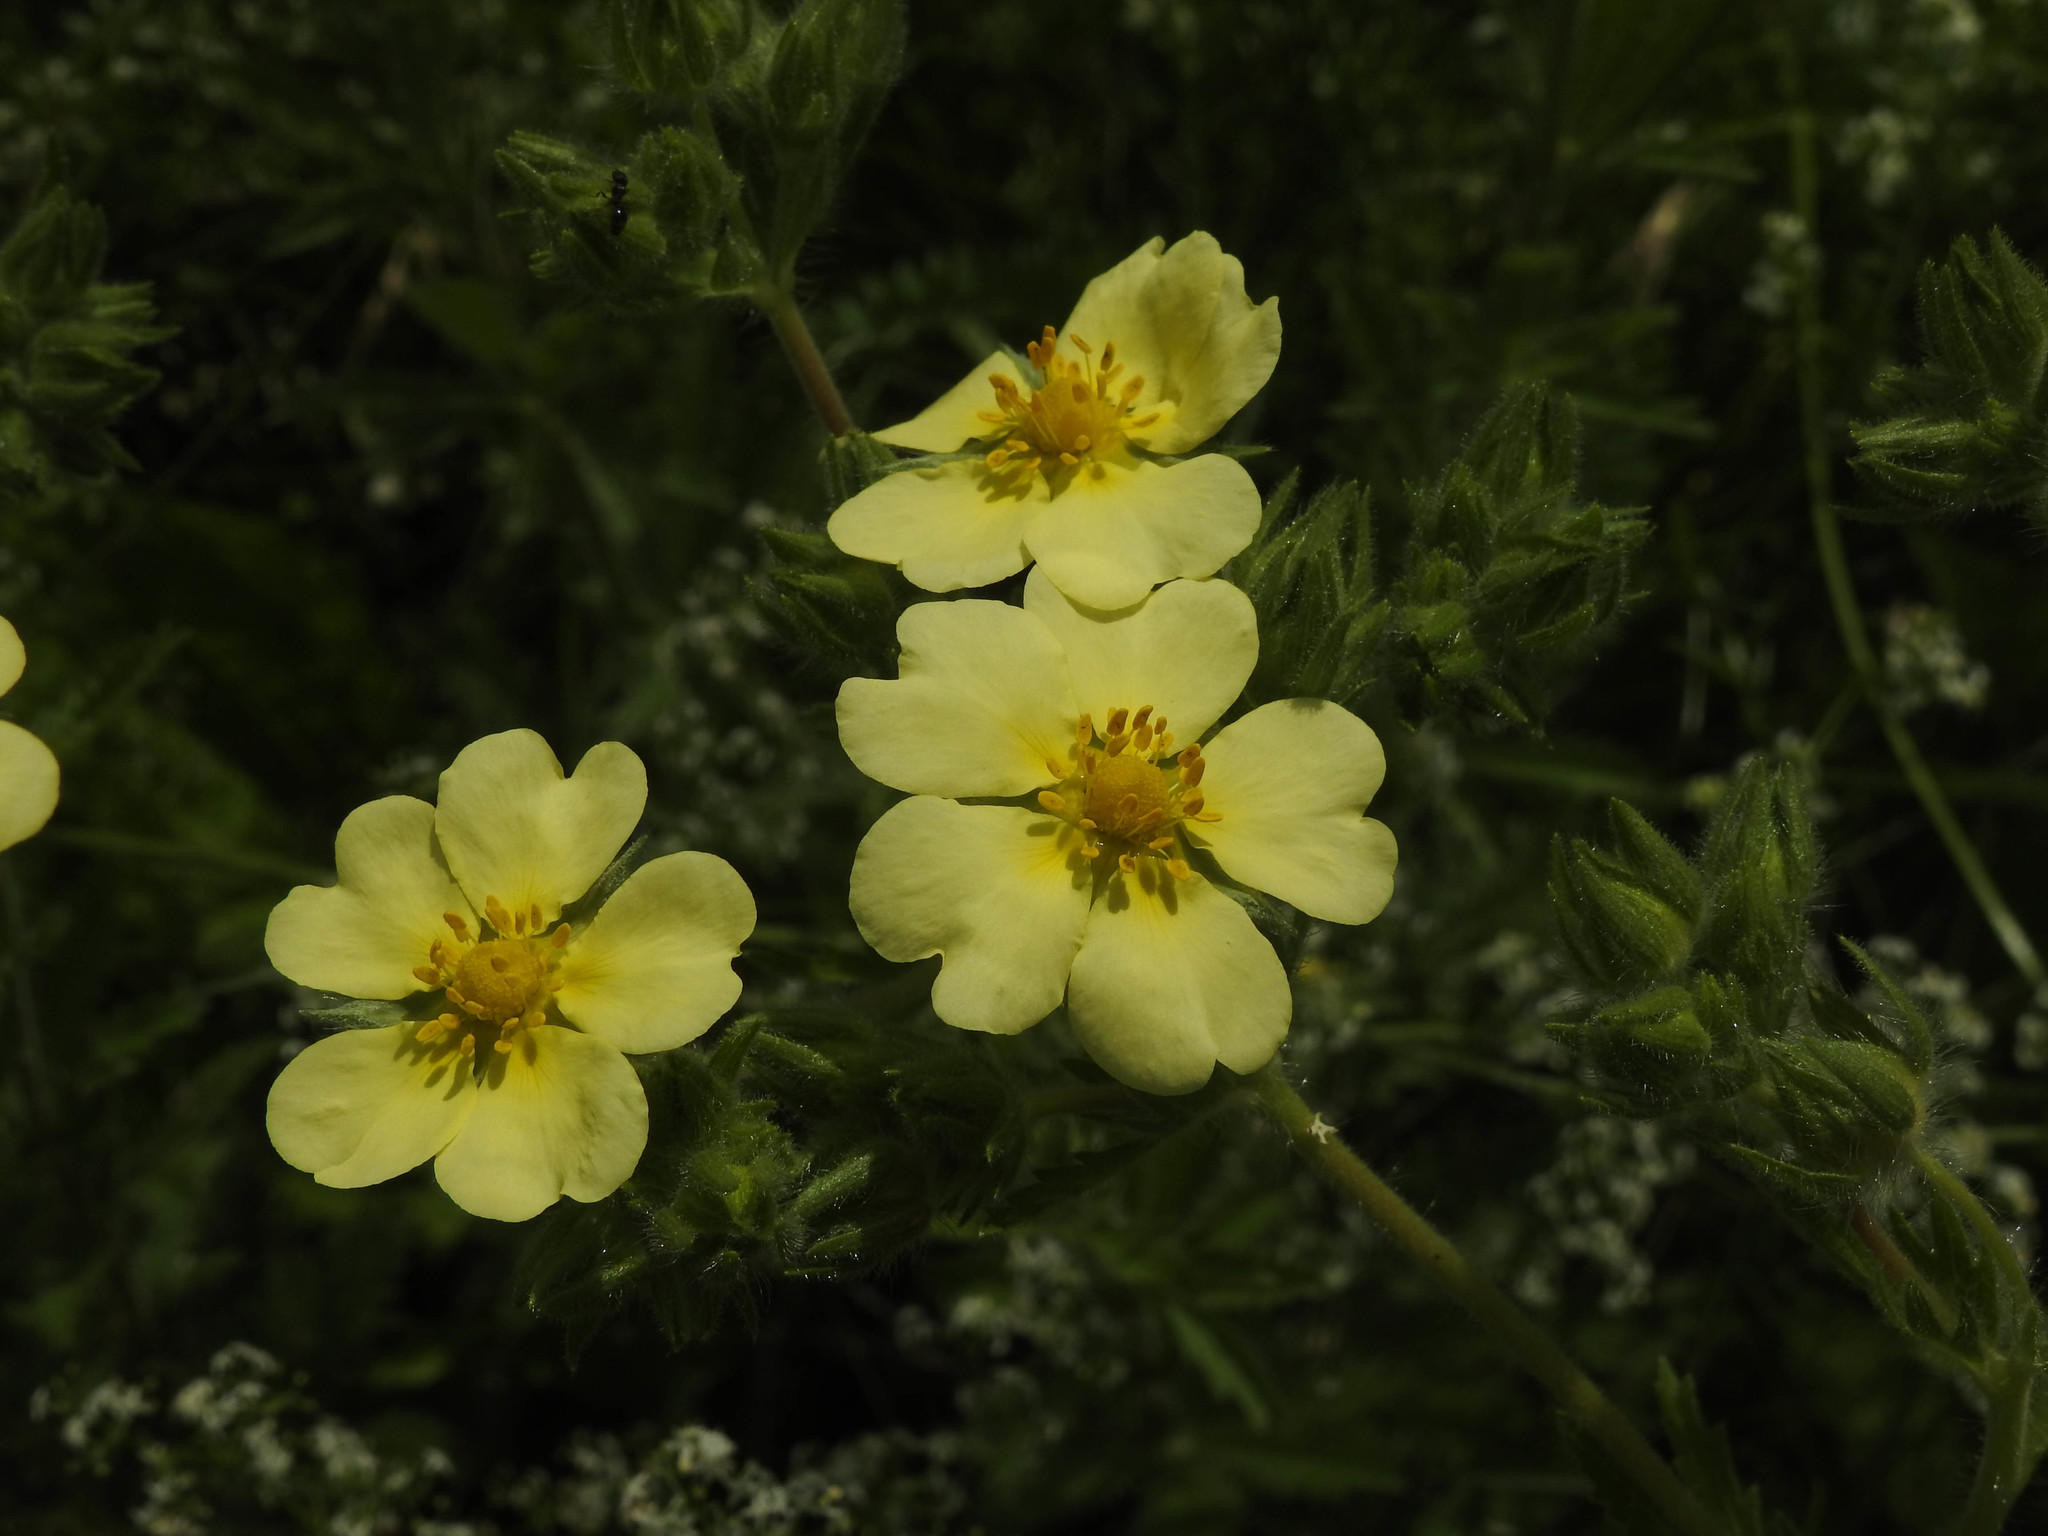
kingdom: Plantae
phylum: Tracheophyta
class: Magnoliopsida
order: Rosales
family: Rosaceae
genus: Potentilla
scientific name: Potentilla recta
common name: Sulphur cinquefoil
